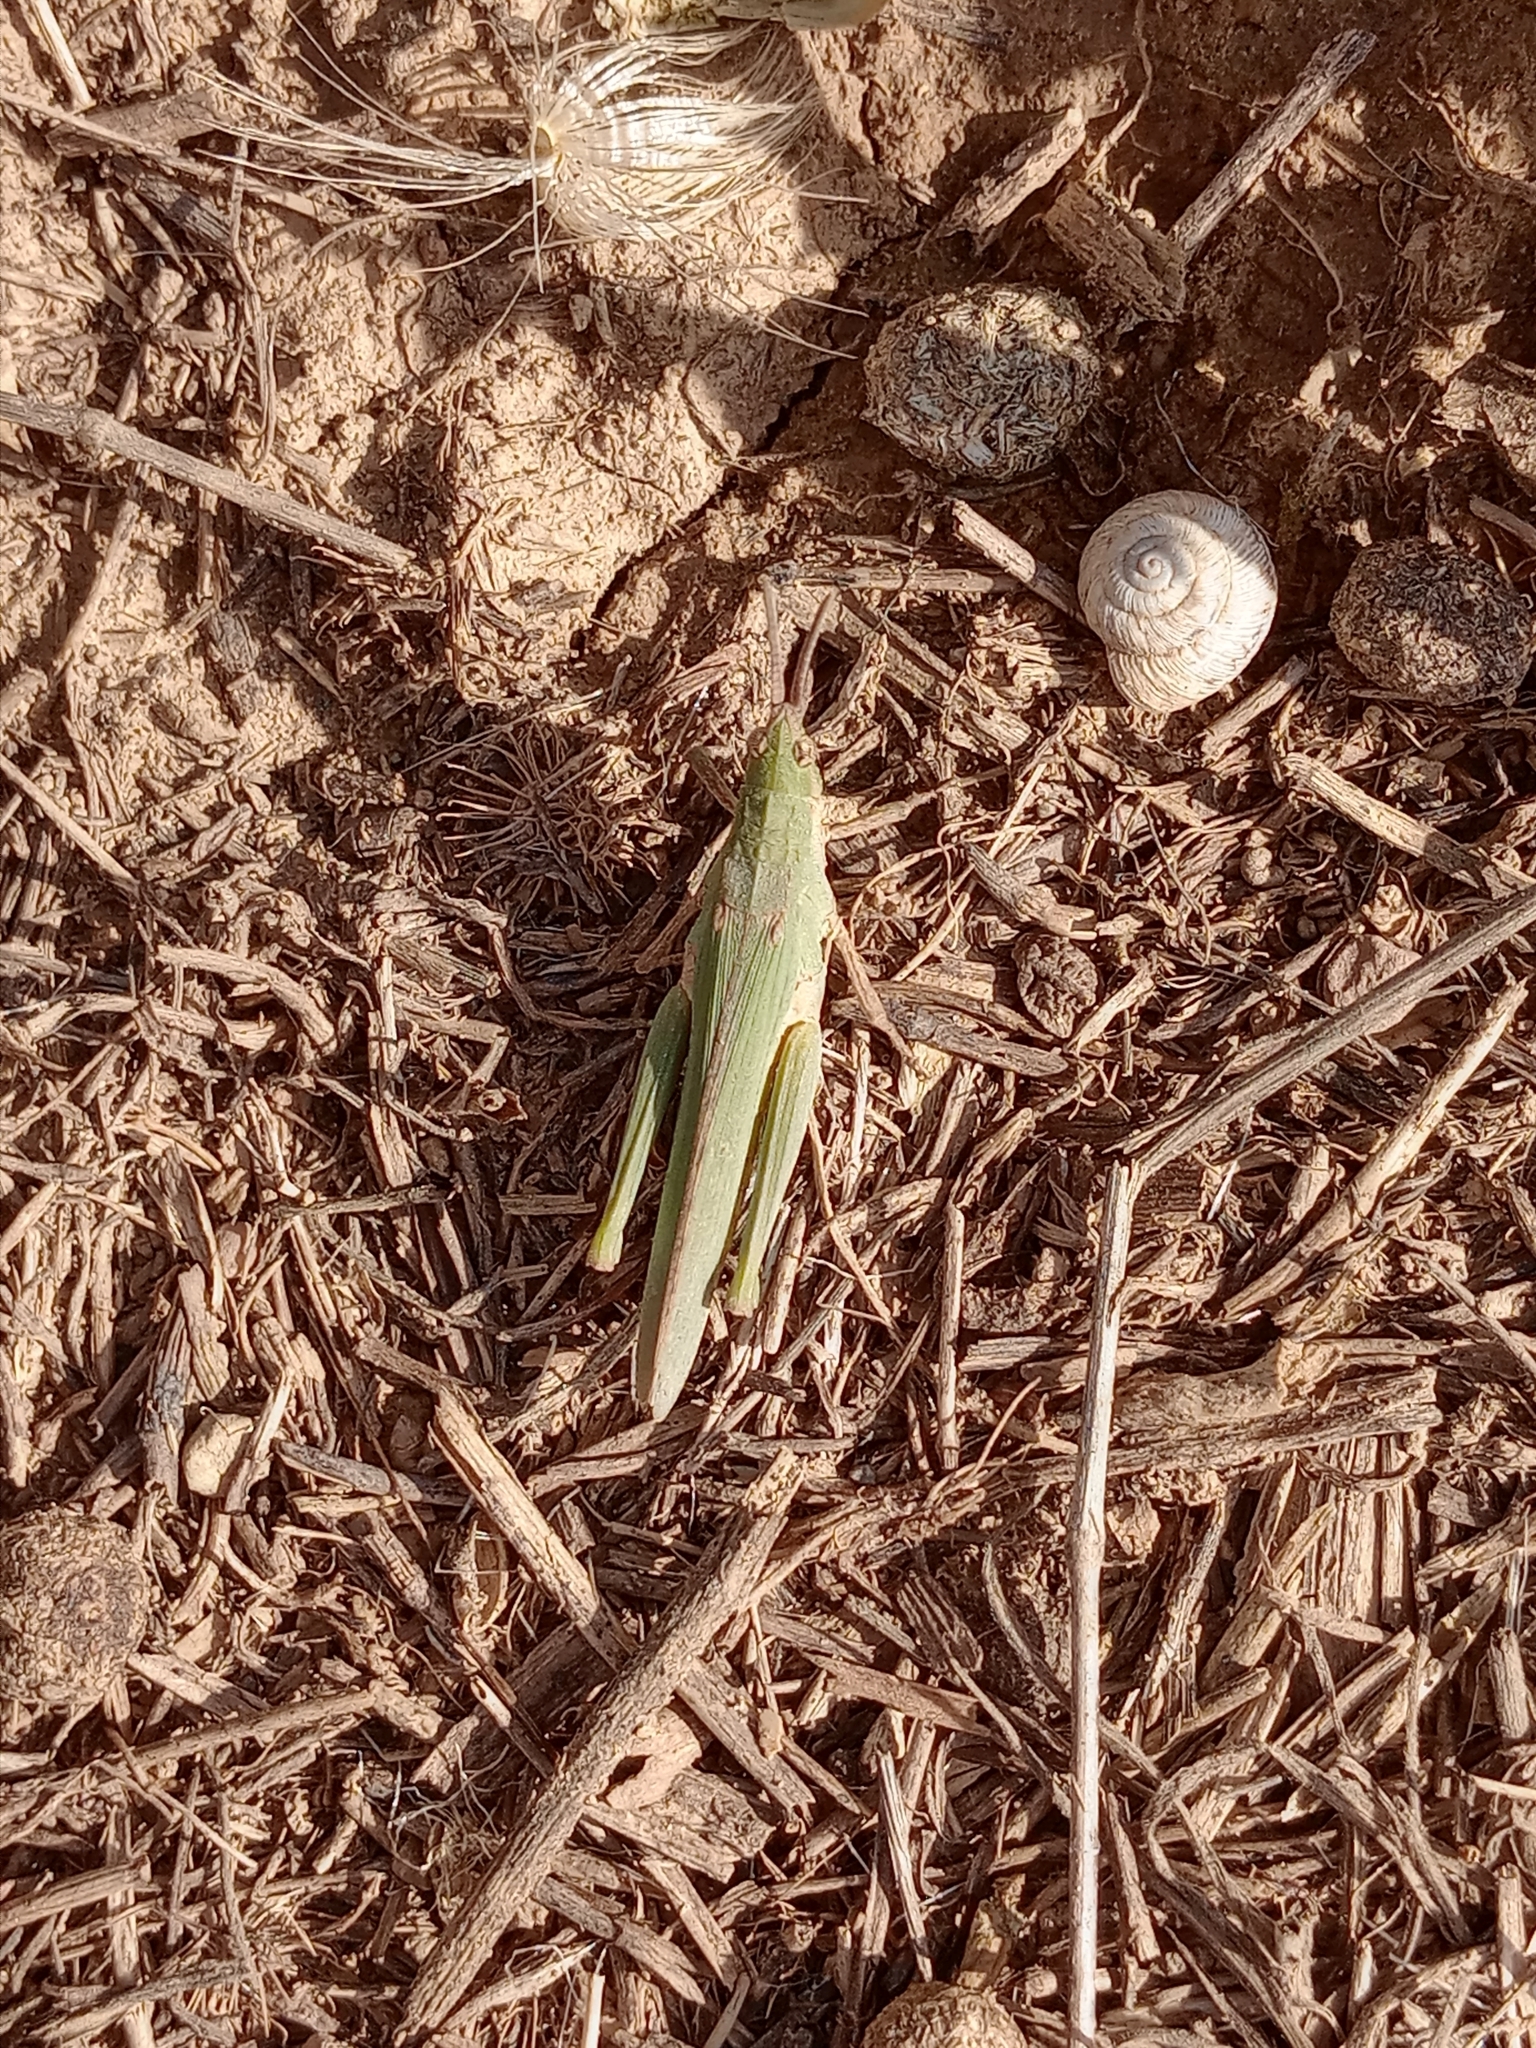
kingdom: Animalia
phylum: Arthropoda
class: Insecta
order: Orthoptera
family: Pyrgomorphidae
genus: Pyrgomorpha
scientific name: Pyrgomorpha conica
